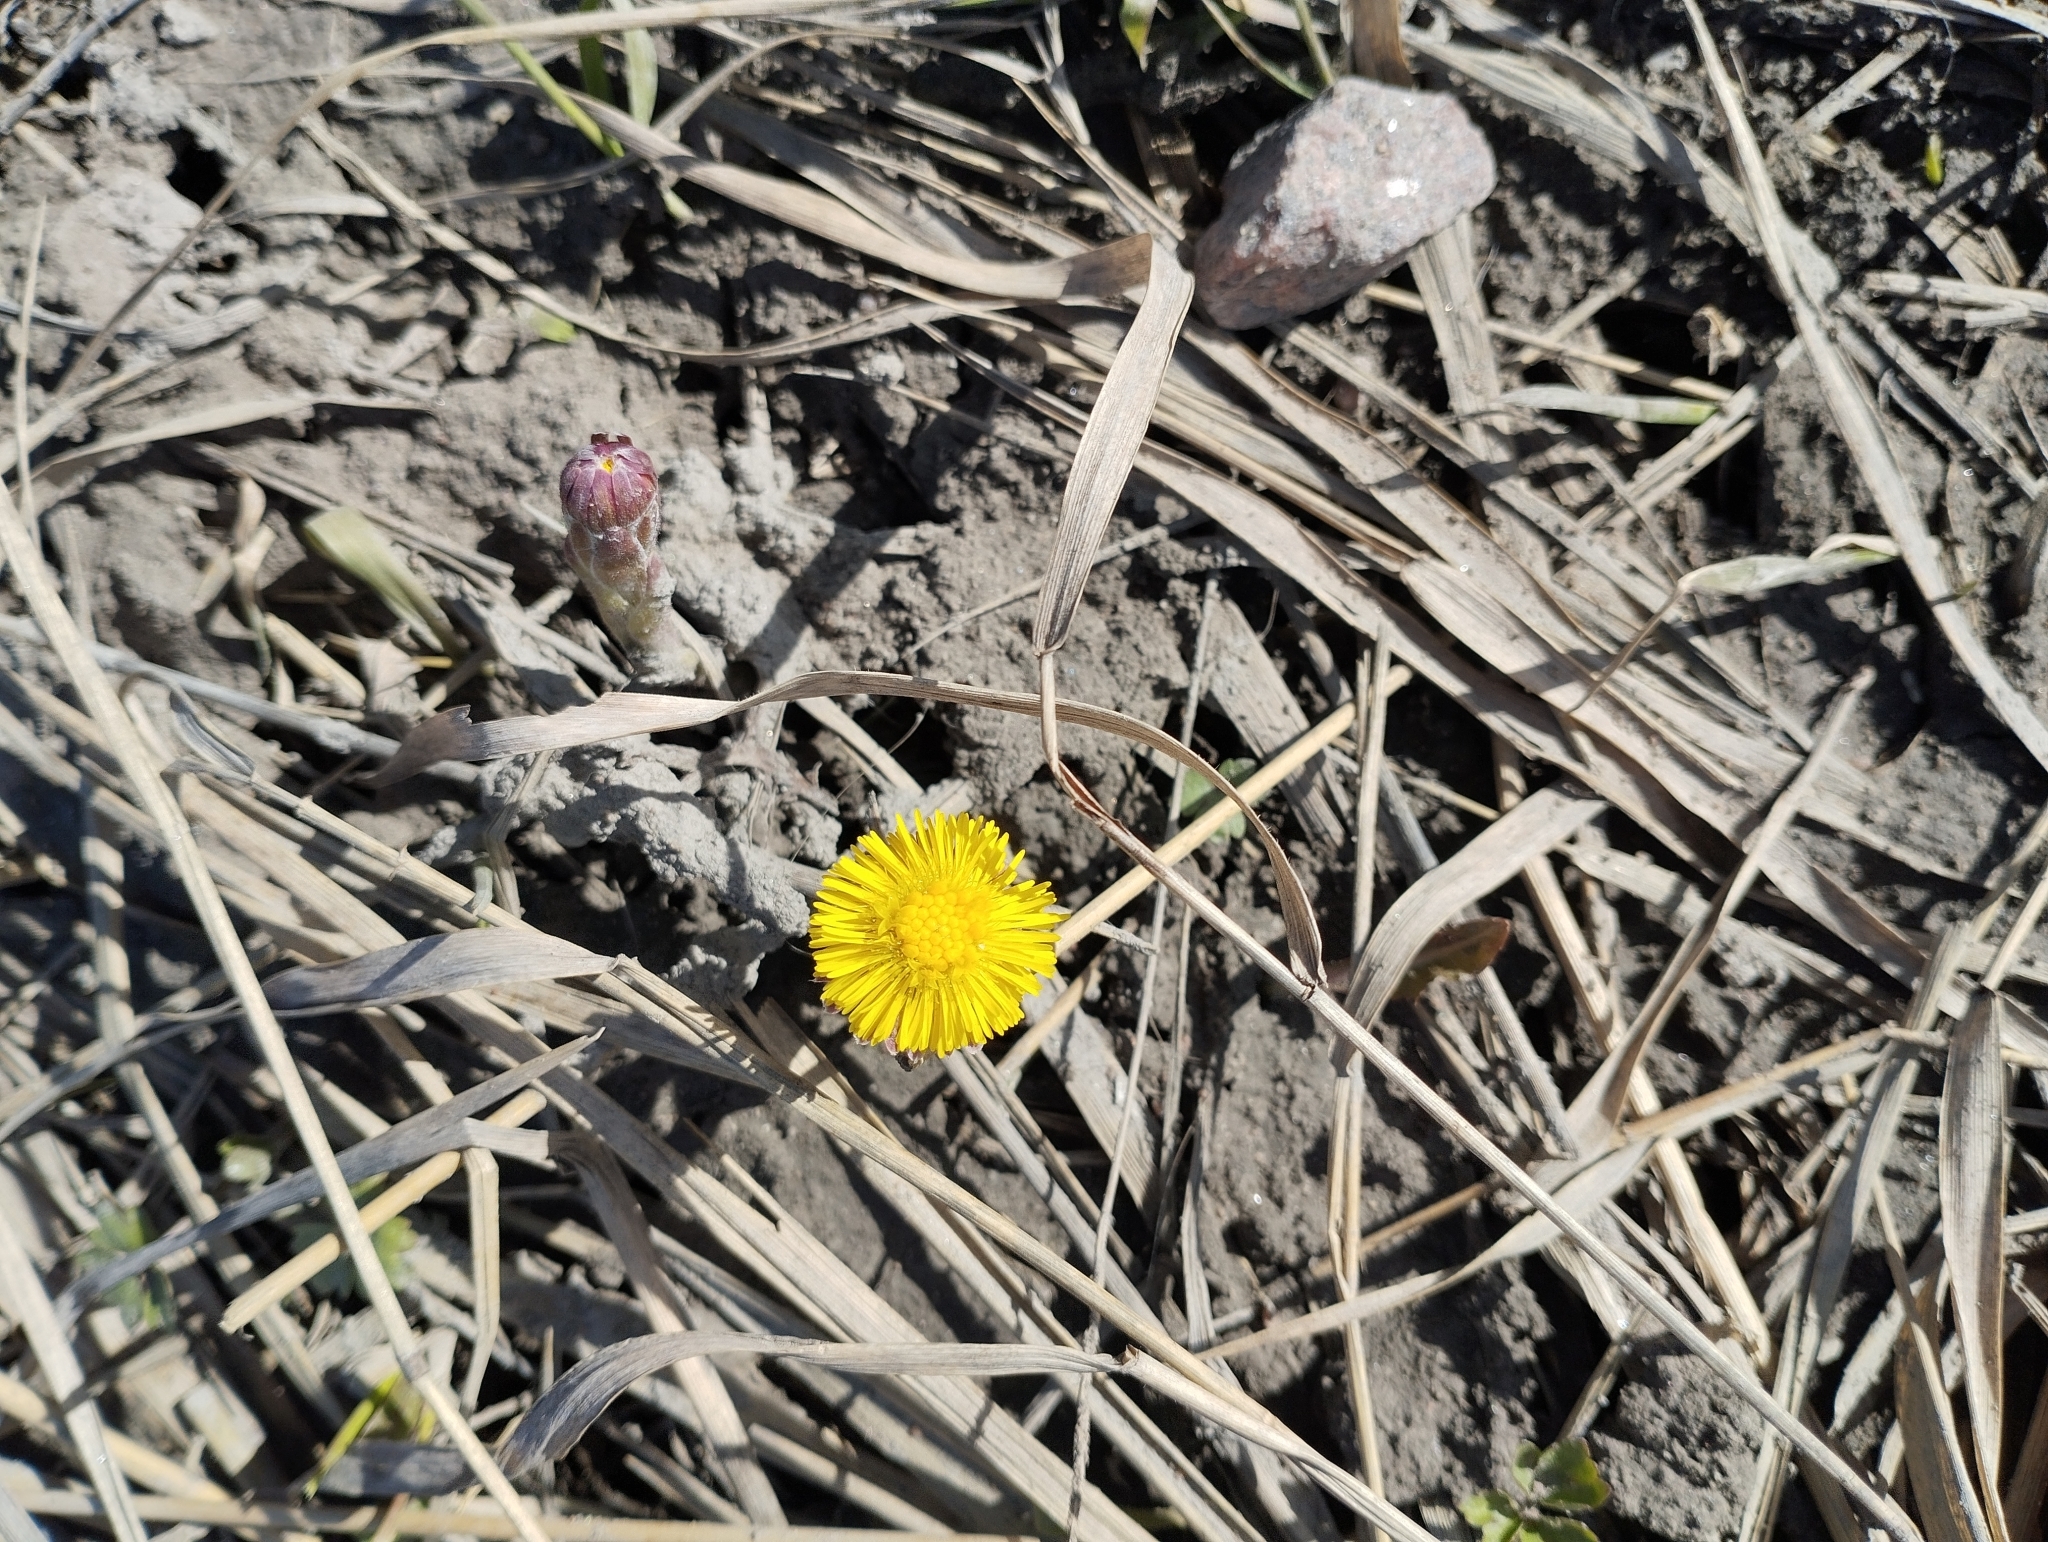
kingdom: Plantae
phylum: Tracheophyta
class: Magnoliopsida
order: Asterales
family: Asteraceae
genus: Tussilago
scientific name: Tussilago farfara
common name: Coltsfoot
